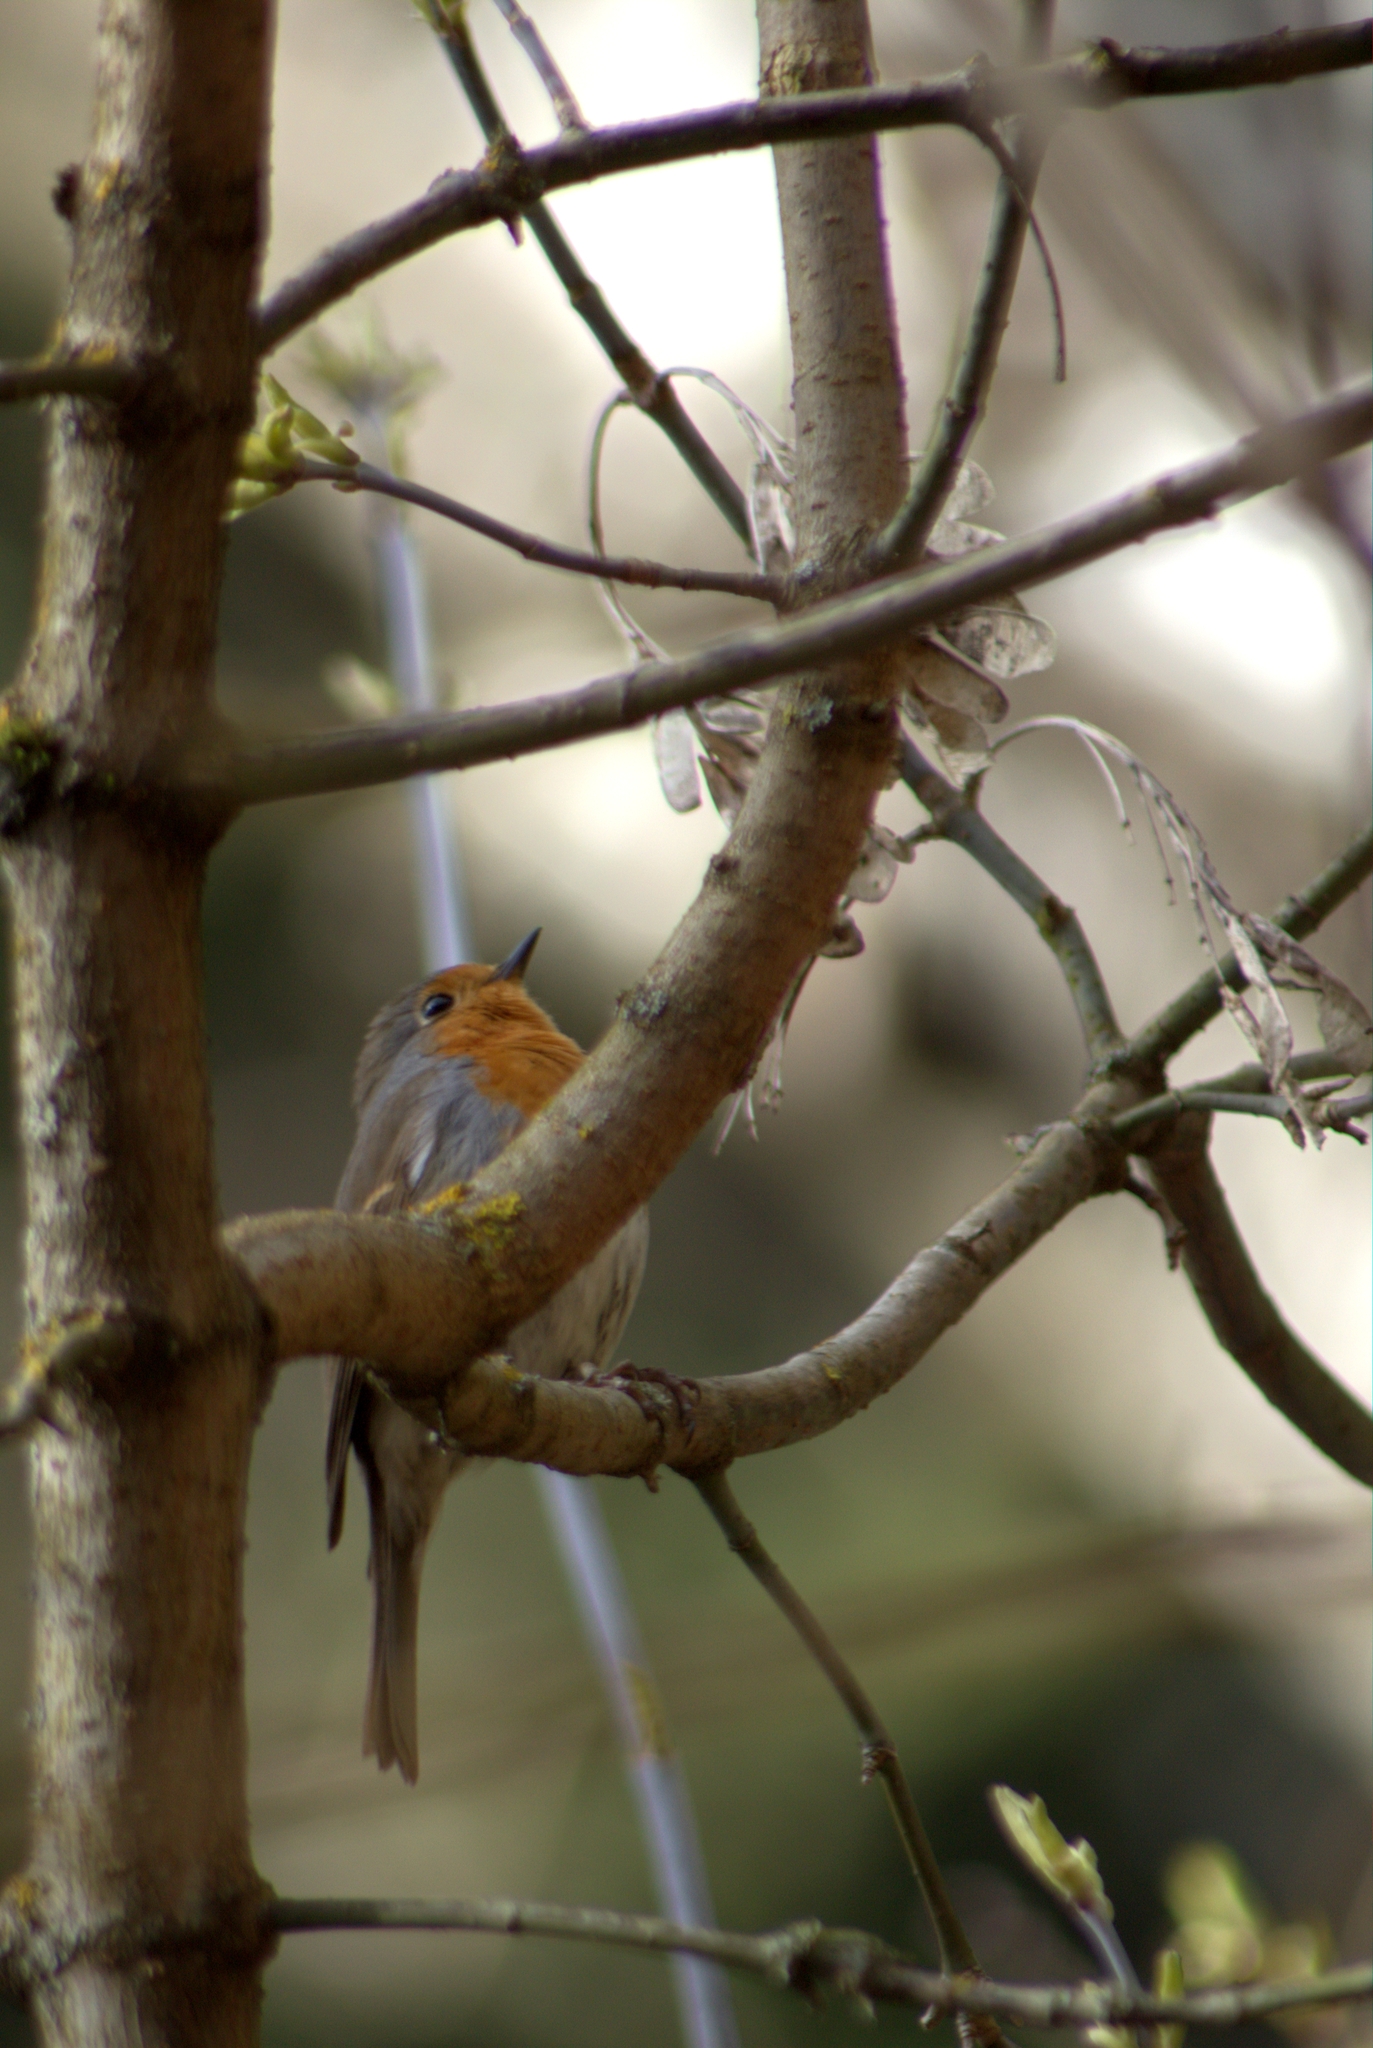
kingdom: Animalia
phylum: Chordata
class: Aves
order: Passeriformes
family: Muscicapidae
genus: Erithacus
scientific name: Erithacus rubecula
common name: European robin
